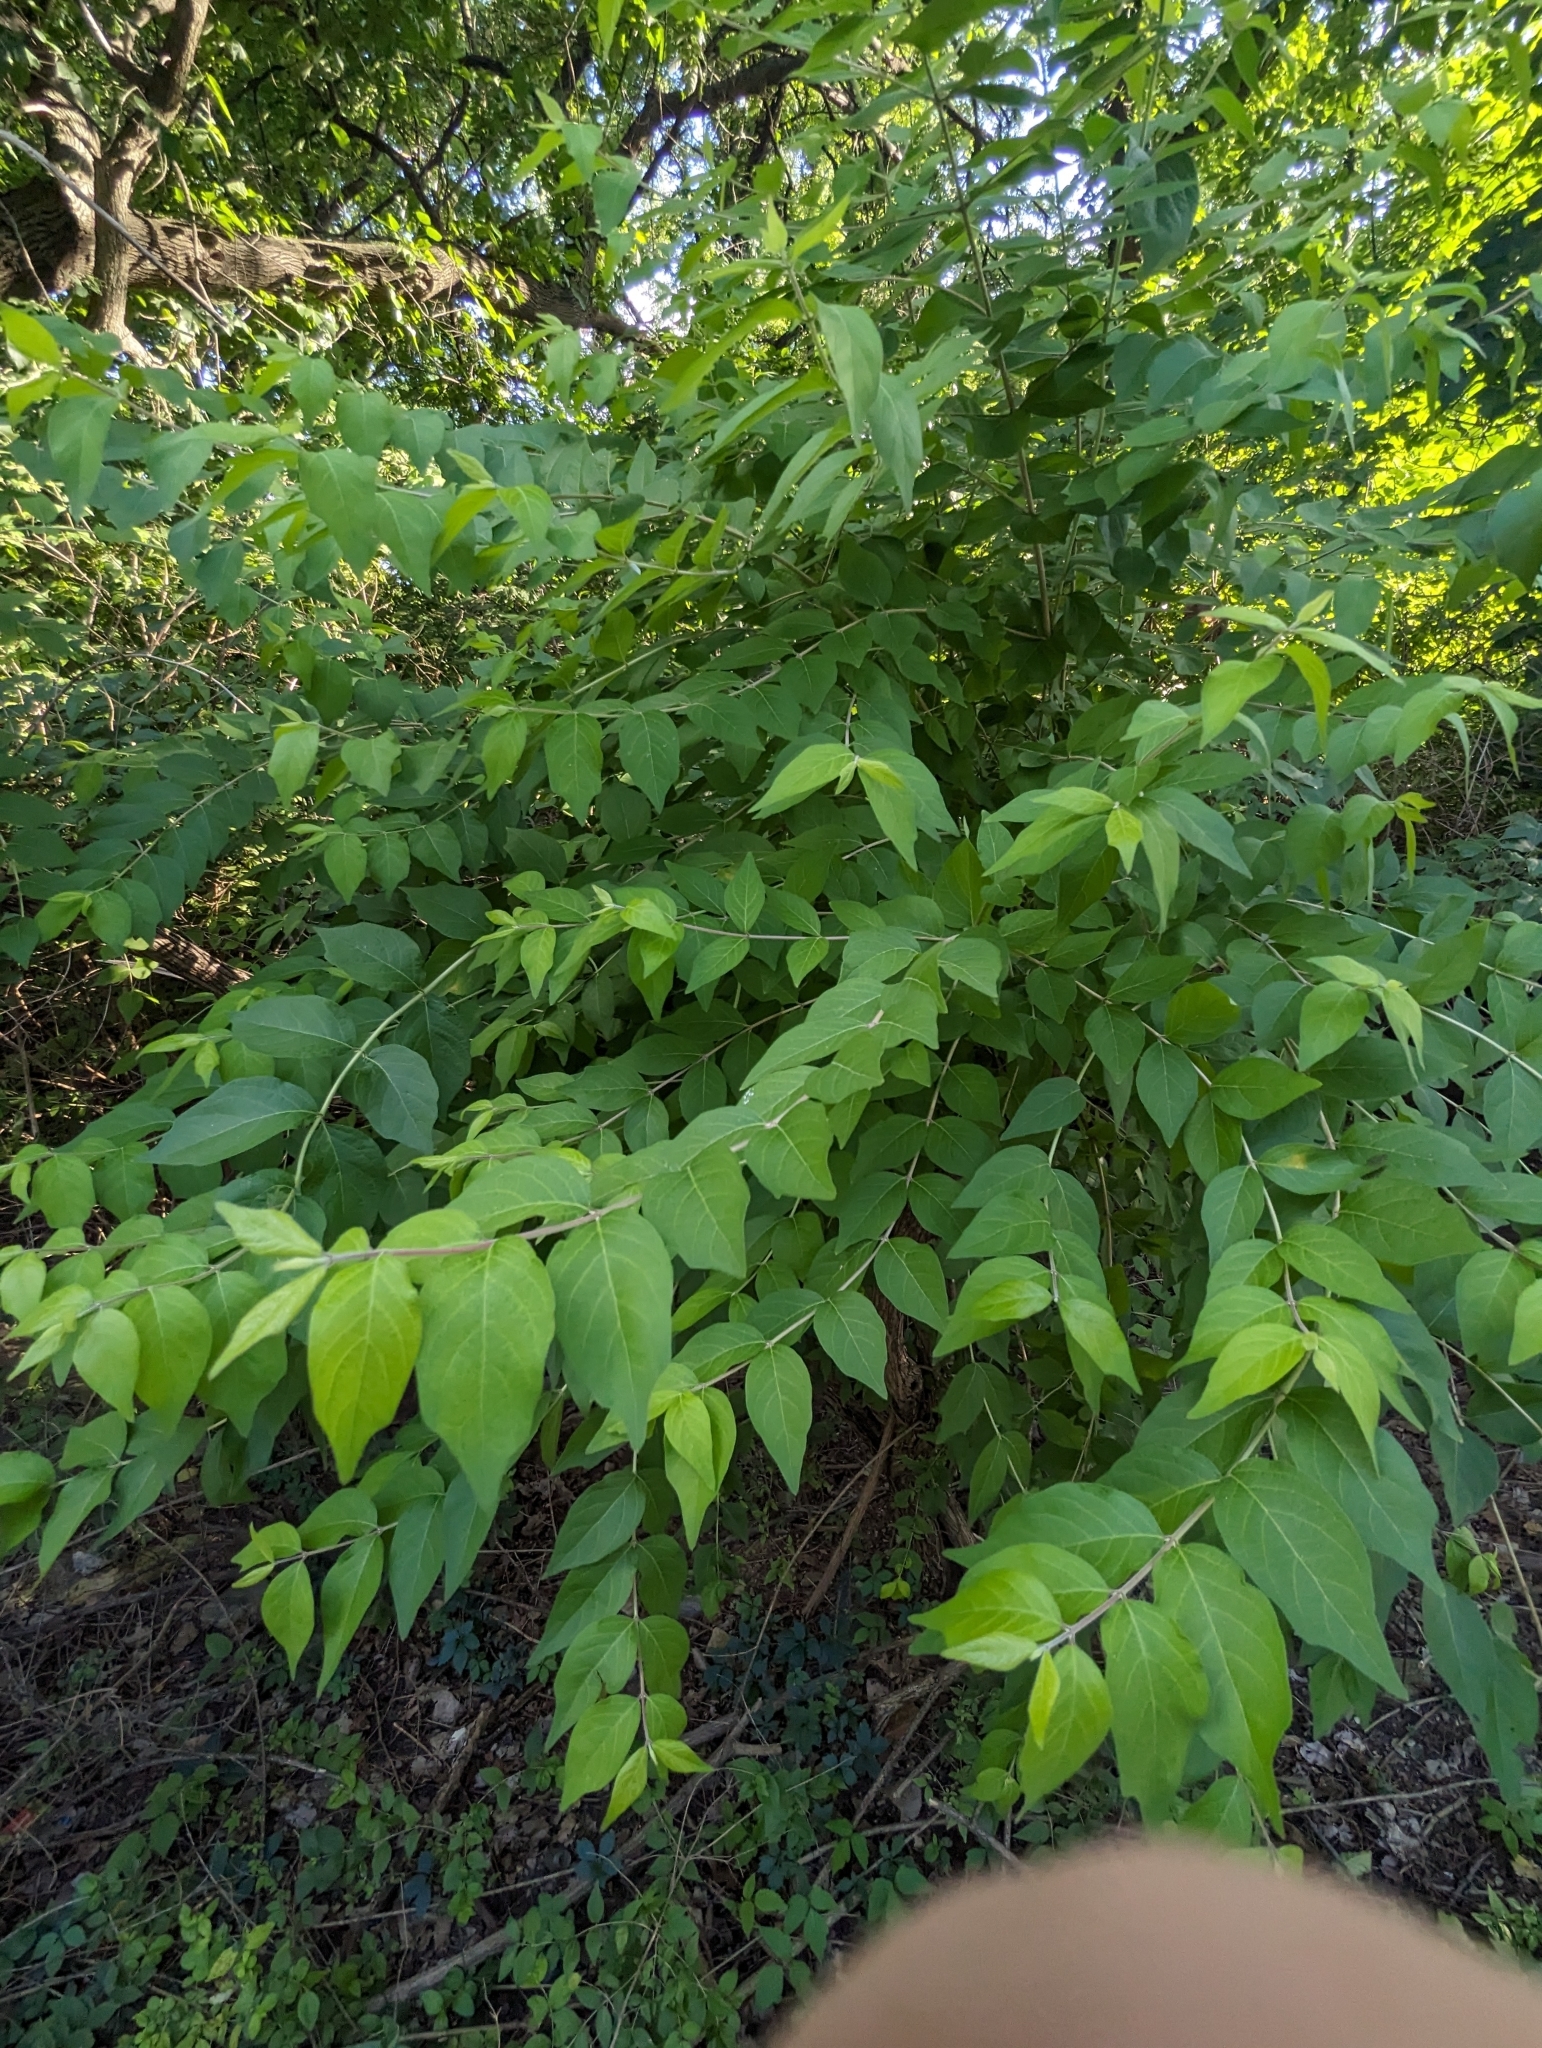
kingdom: Plantae
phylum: Tracheophyta
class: Magnoliopsida
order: Dipsacales
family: Caprifoliaceae
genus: Lonicera
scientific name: Lonicera maackii
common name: Amur honeysuckle
